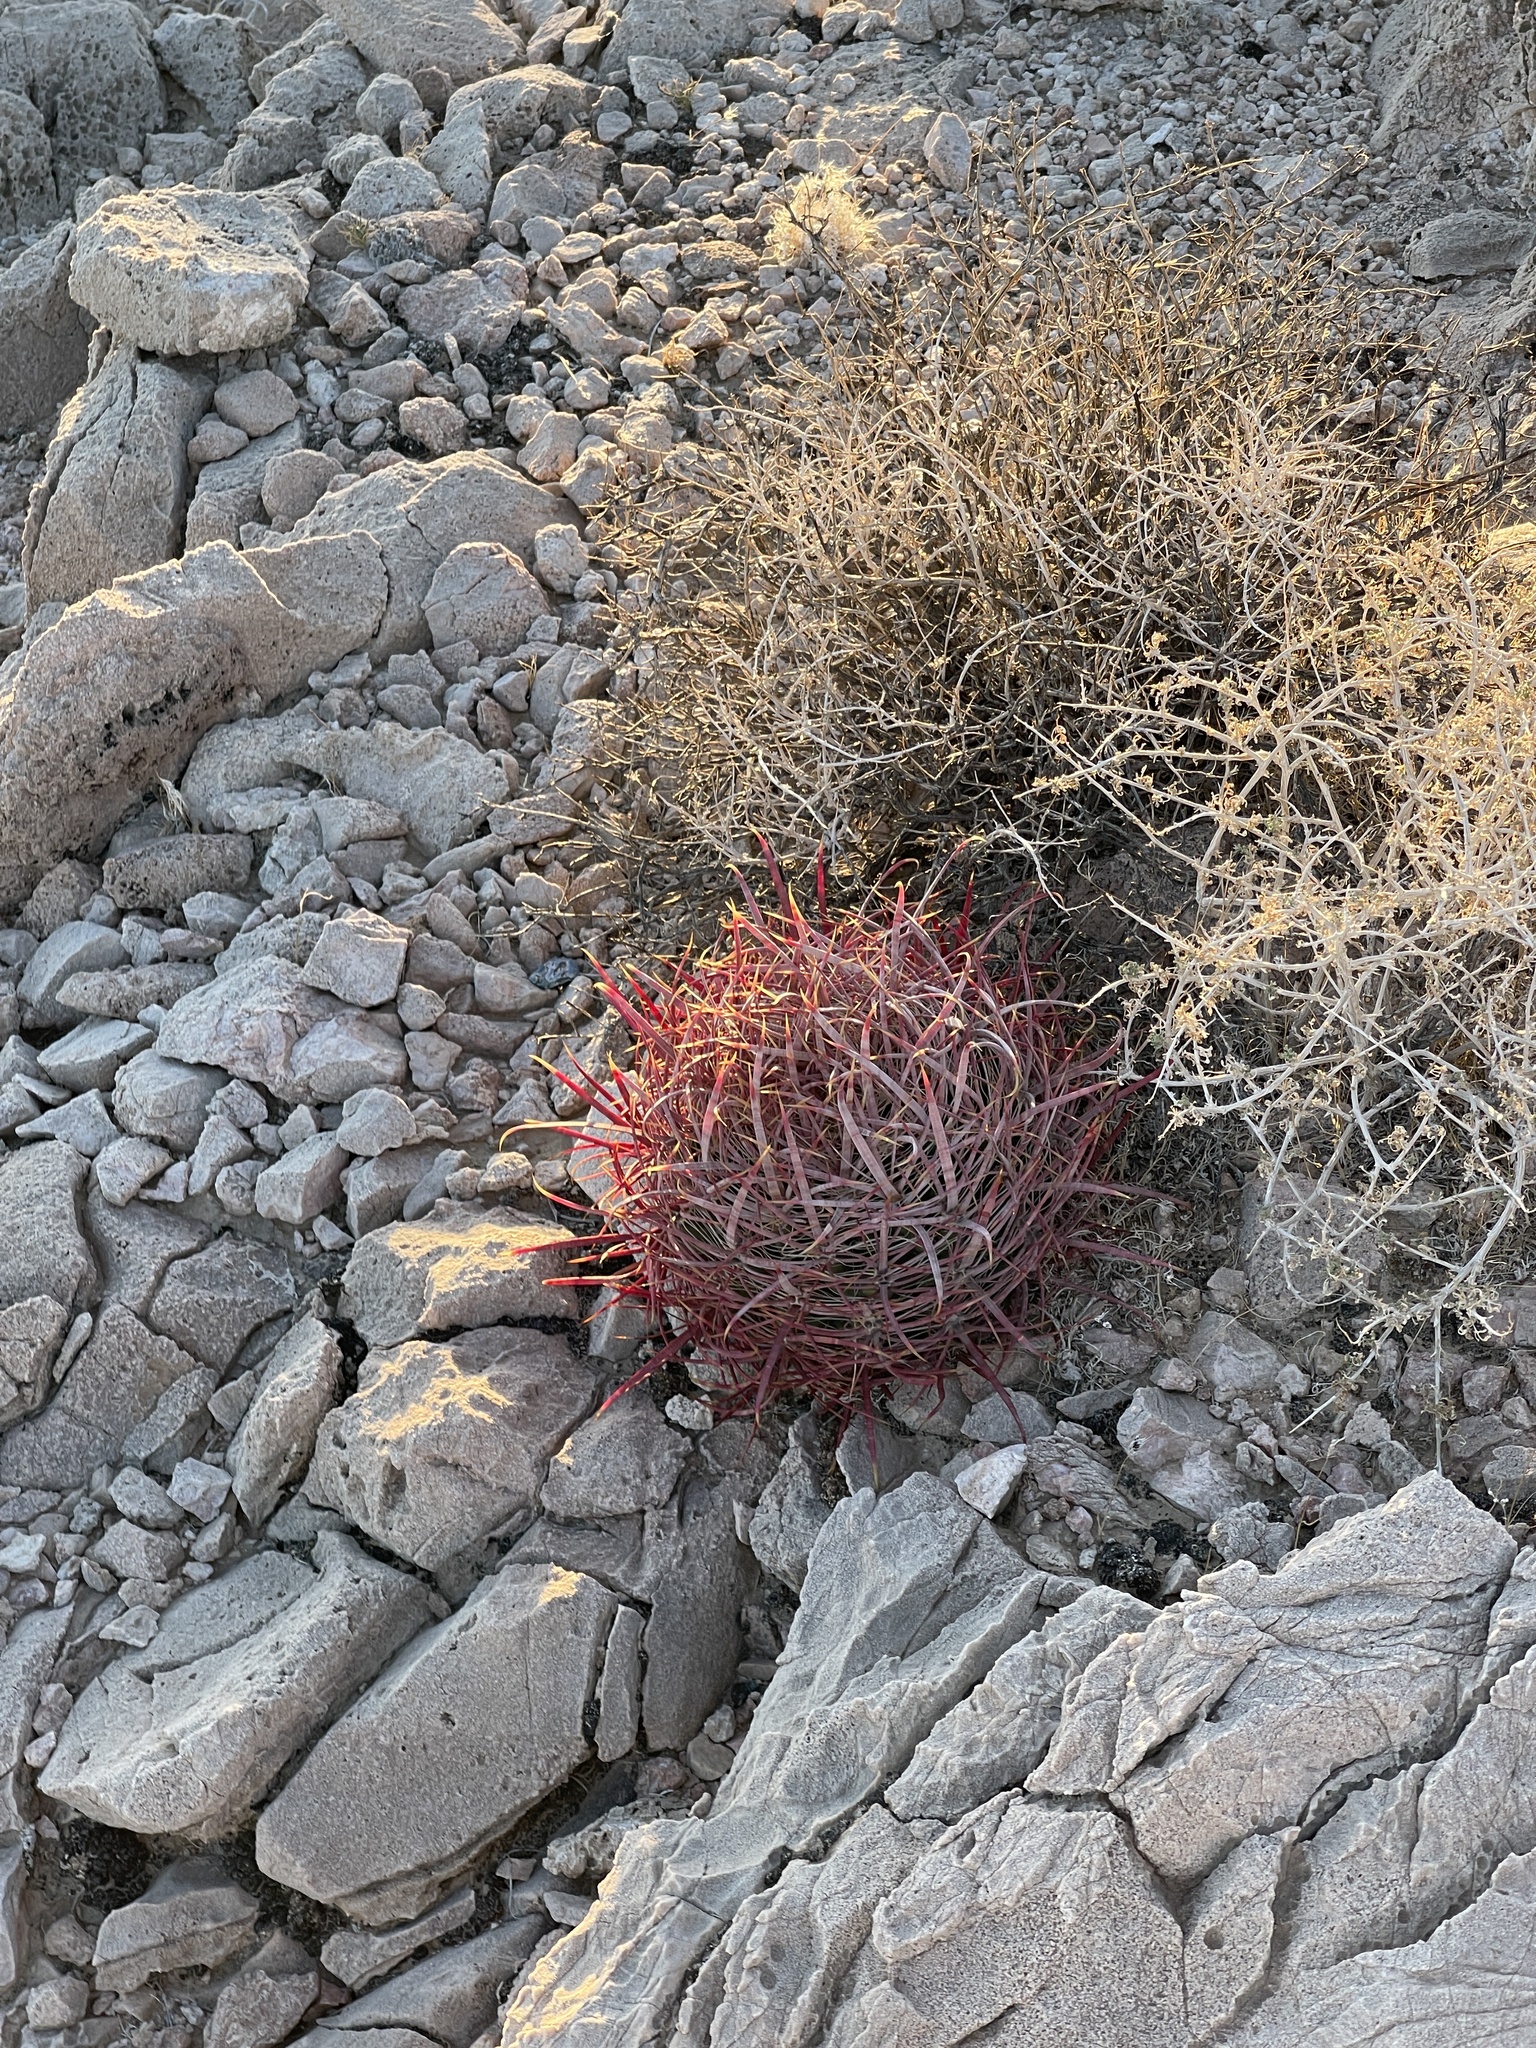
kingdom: Plantae
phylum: Tracheophyta
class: Magnoliopsida
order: Caryophyllales
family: Cactaceae
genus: Ferocactus
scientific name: Ferocactus cylindraceus
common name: California barrel cactus
